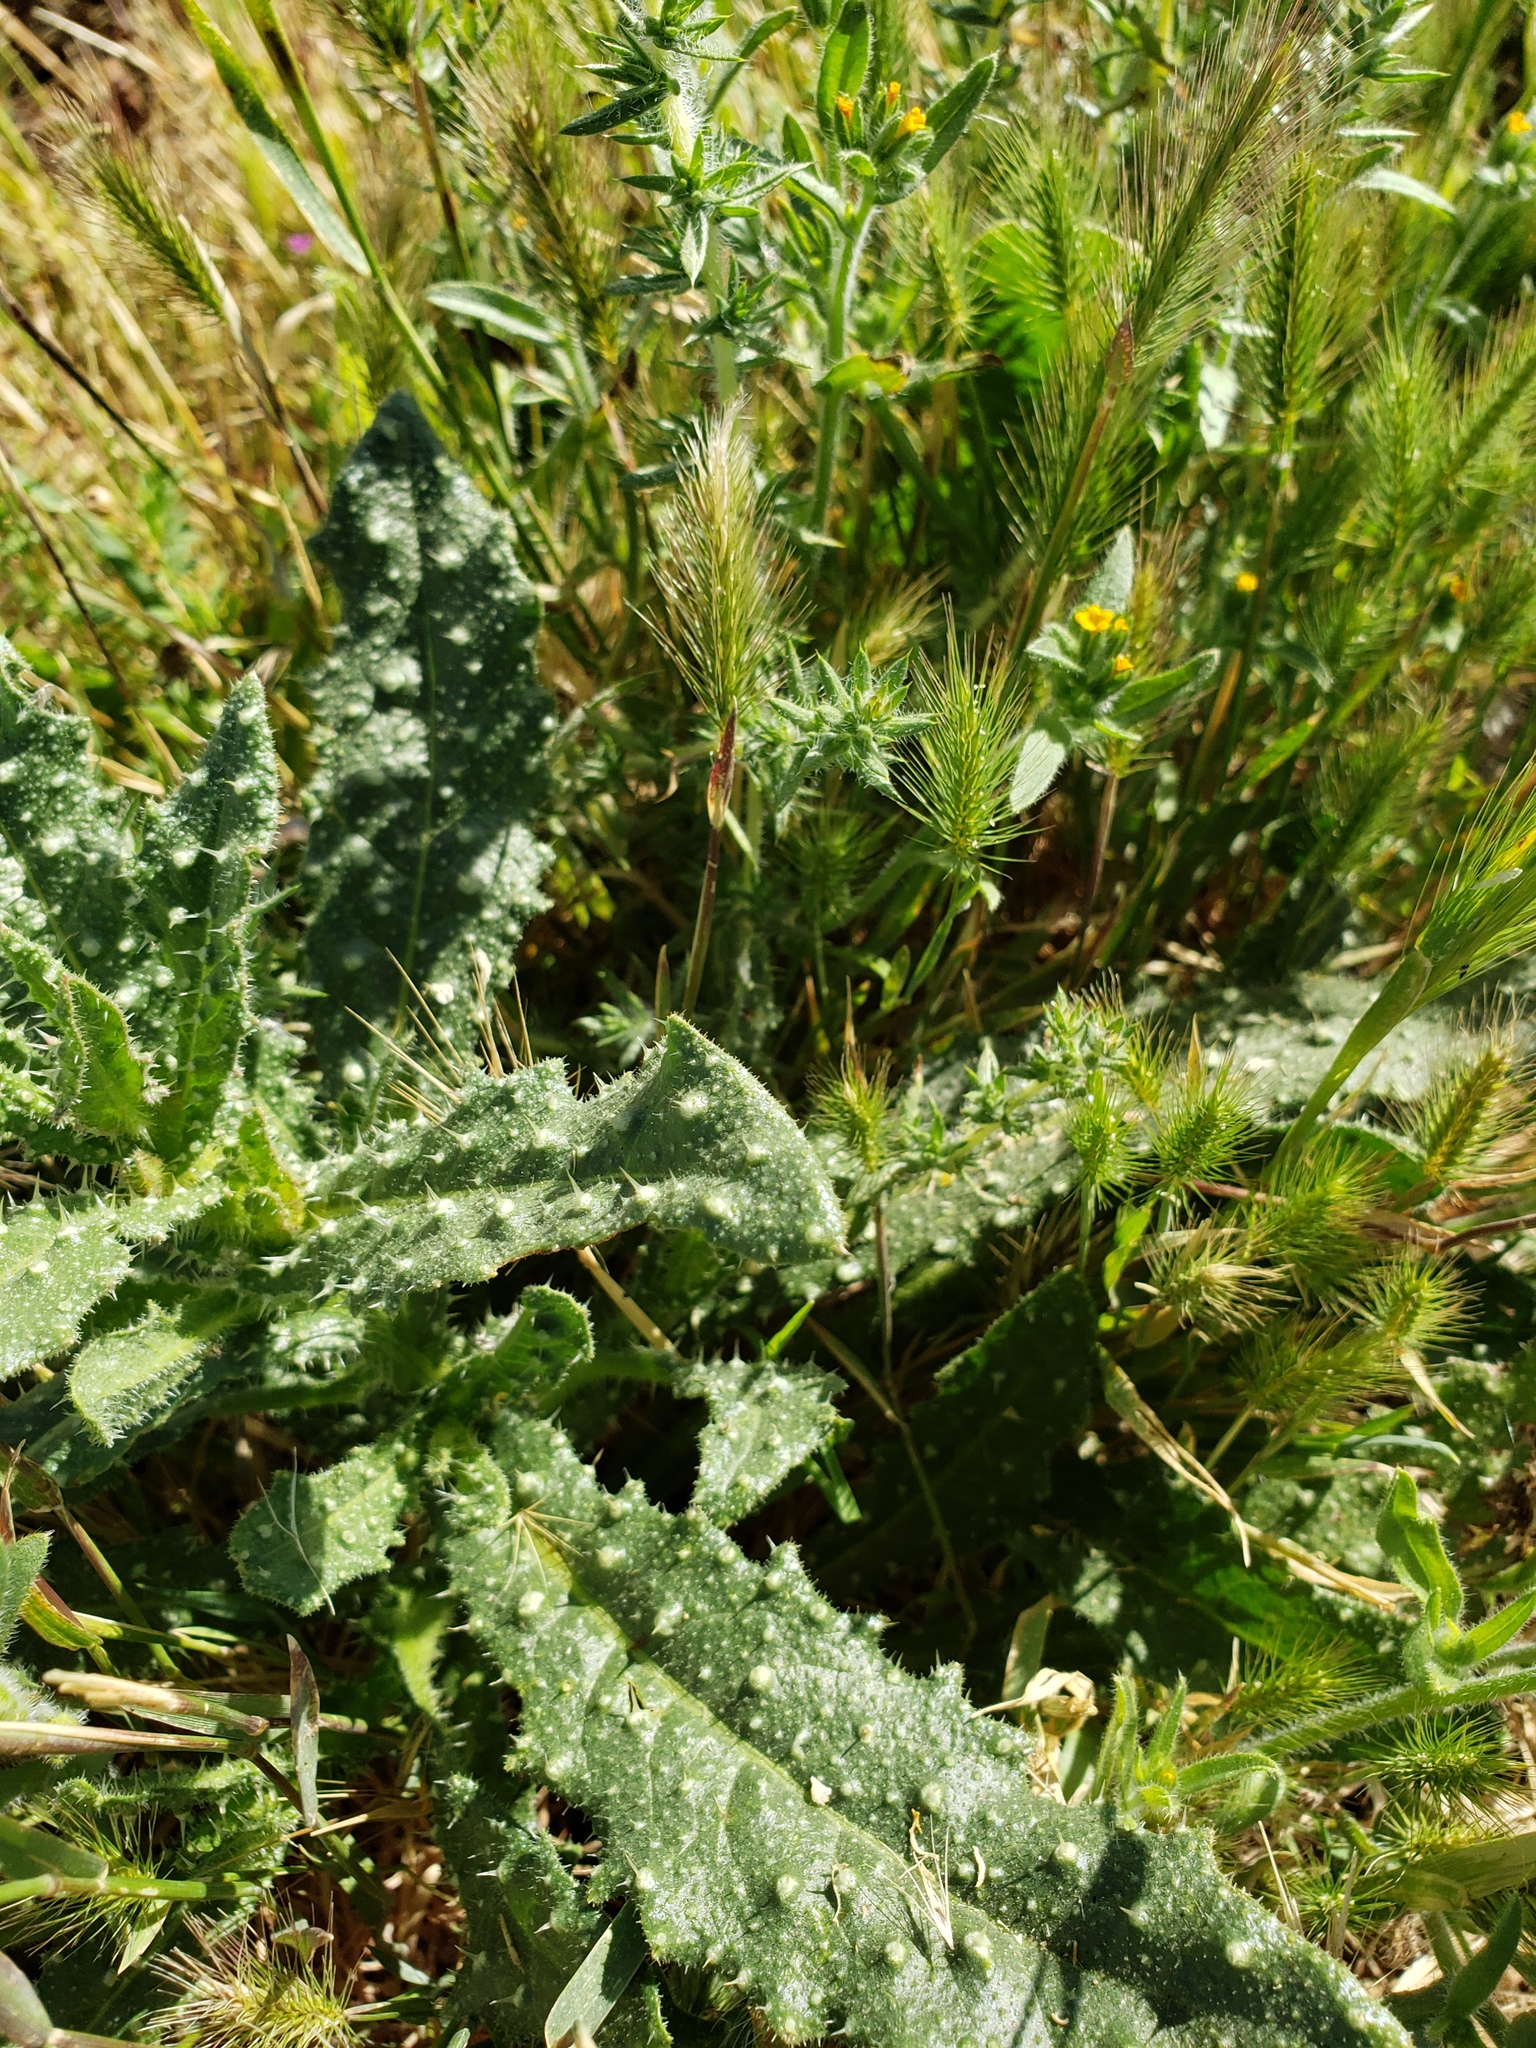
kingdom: Plantae
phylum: Tracheophyta
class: Magnoliopsida
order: Asterales
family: Asteraceae
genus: Helminthotheca
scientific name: Helminthotheca echioides
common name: Ox-tongue
